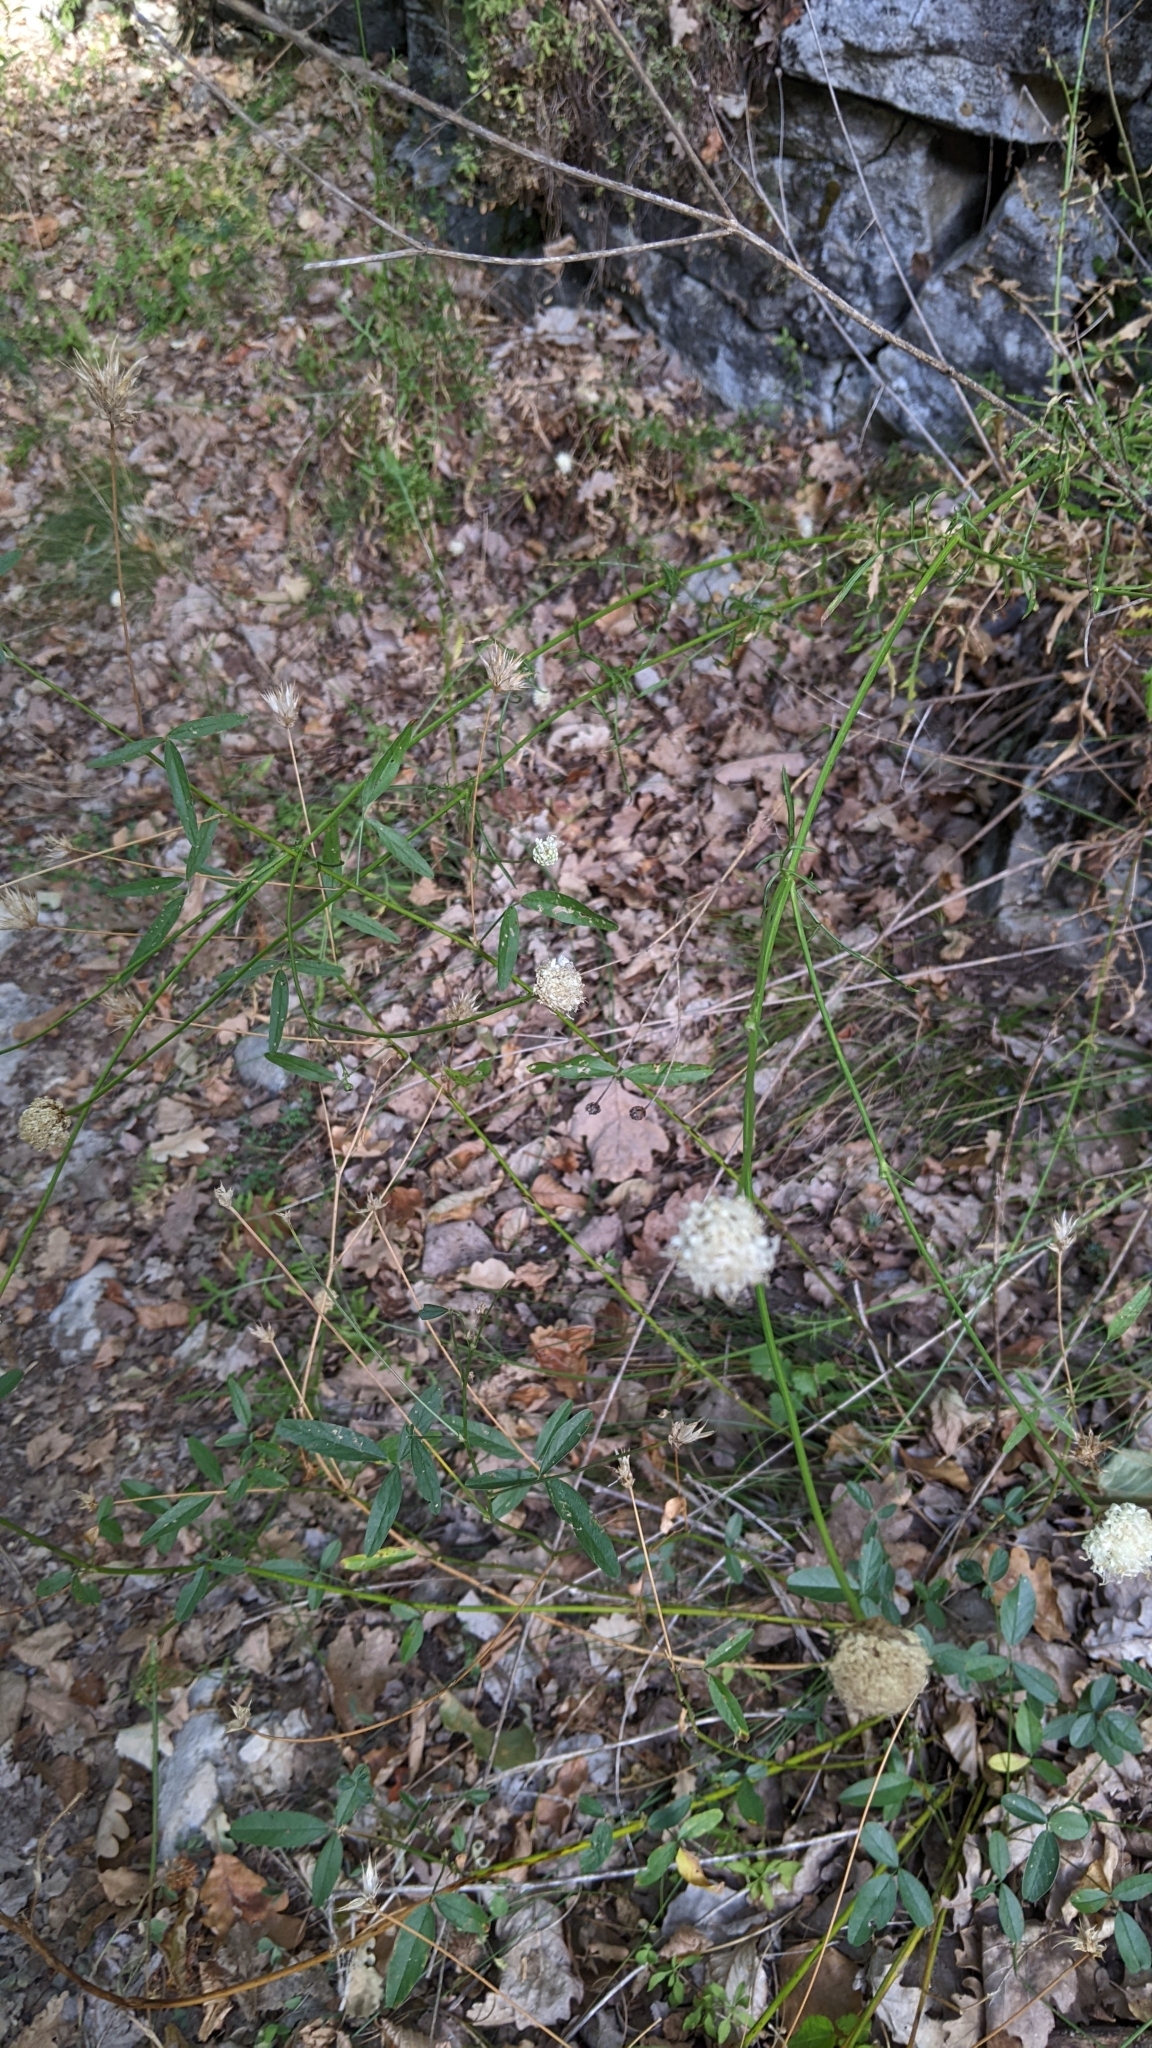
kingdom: Plantae
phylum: Tracheophyta
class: Magnoliopsida
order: Dipsacales
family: Caprifoliaceae
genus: Cephalaria
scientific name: Cephalaria leucantha
